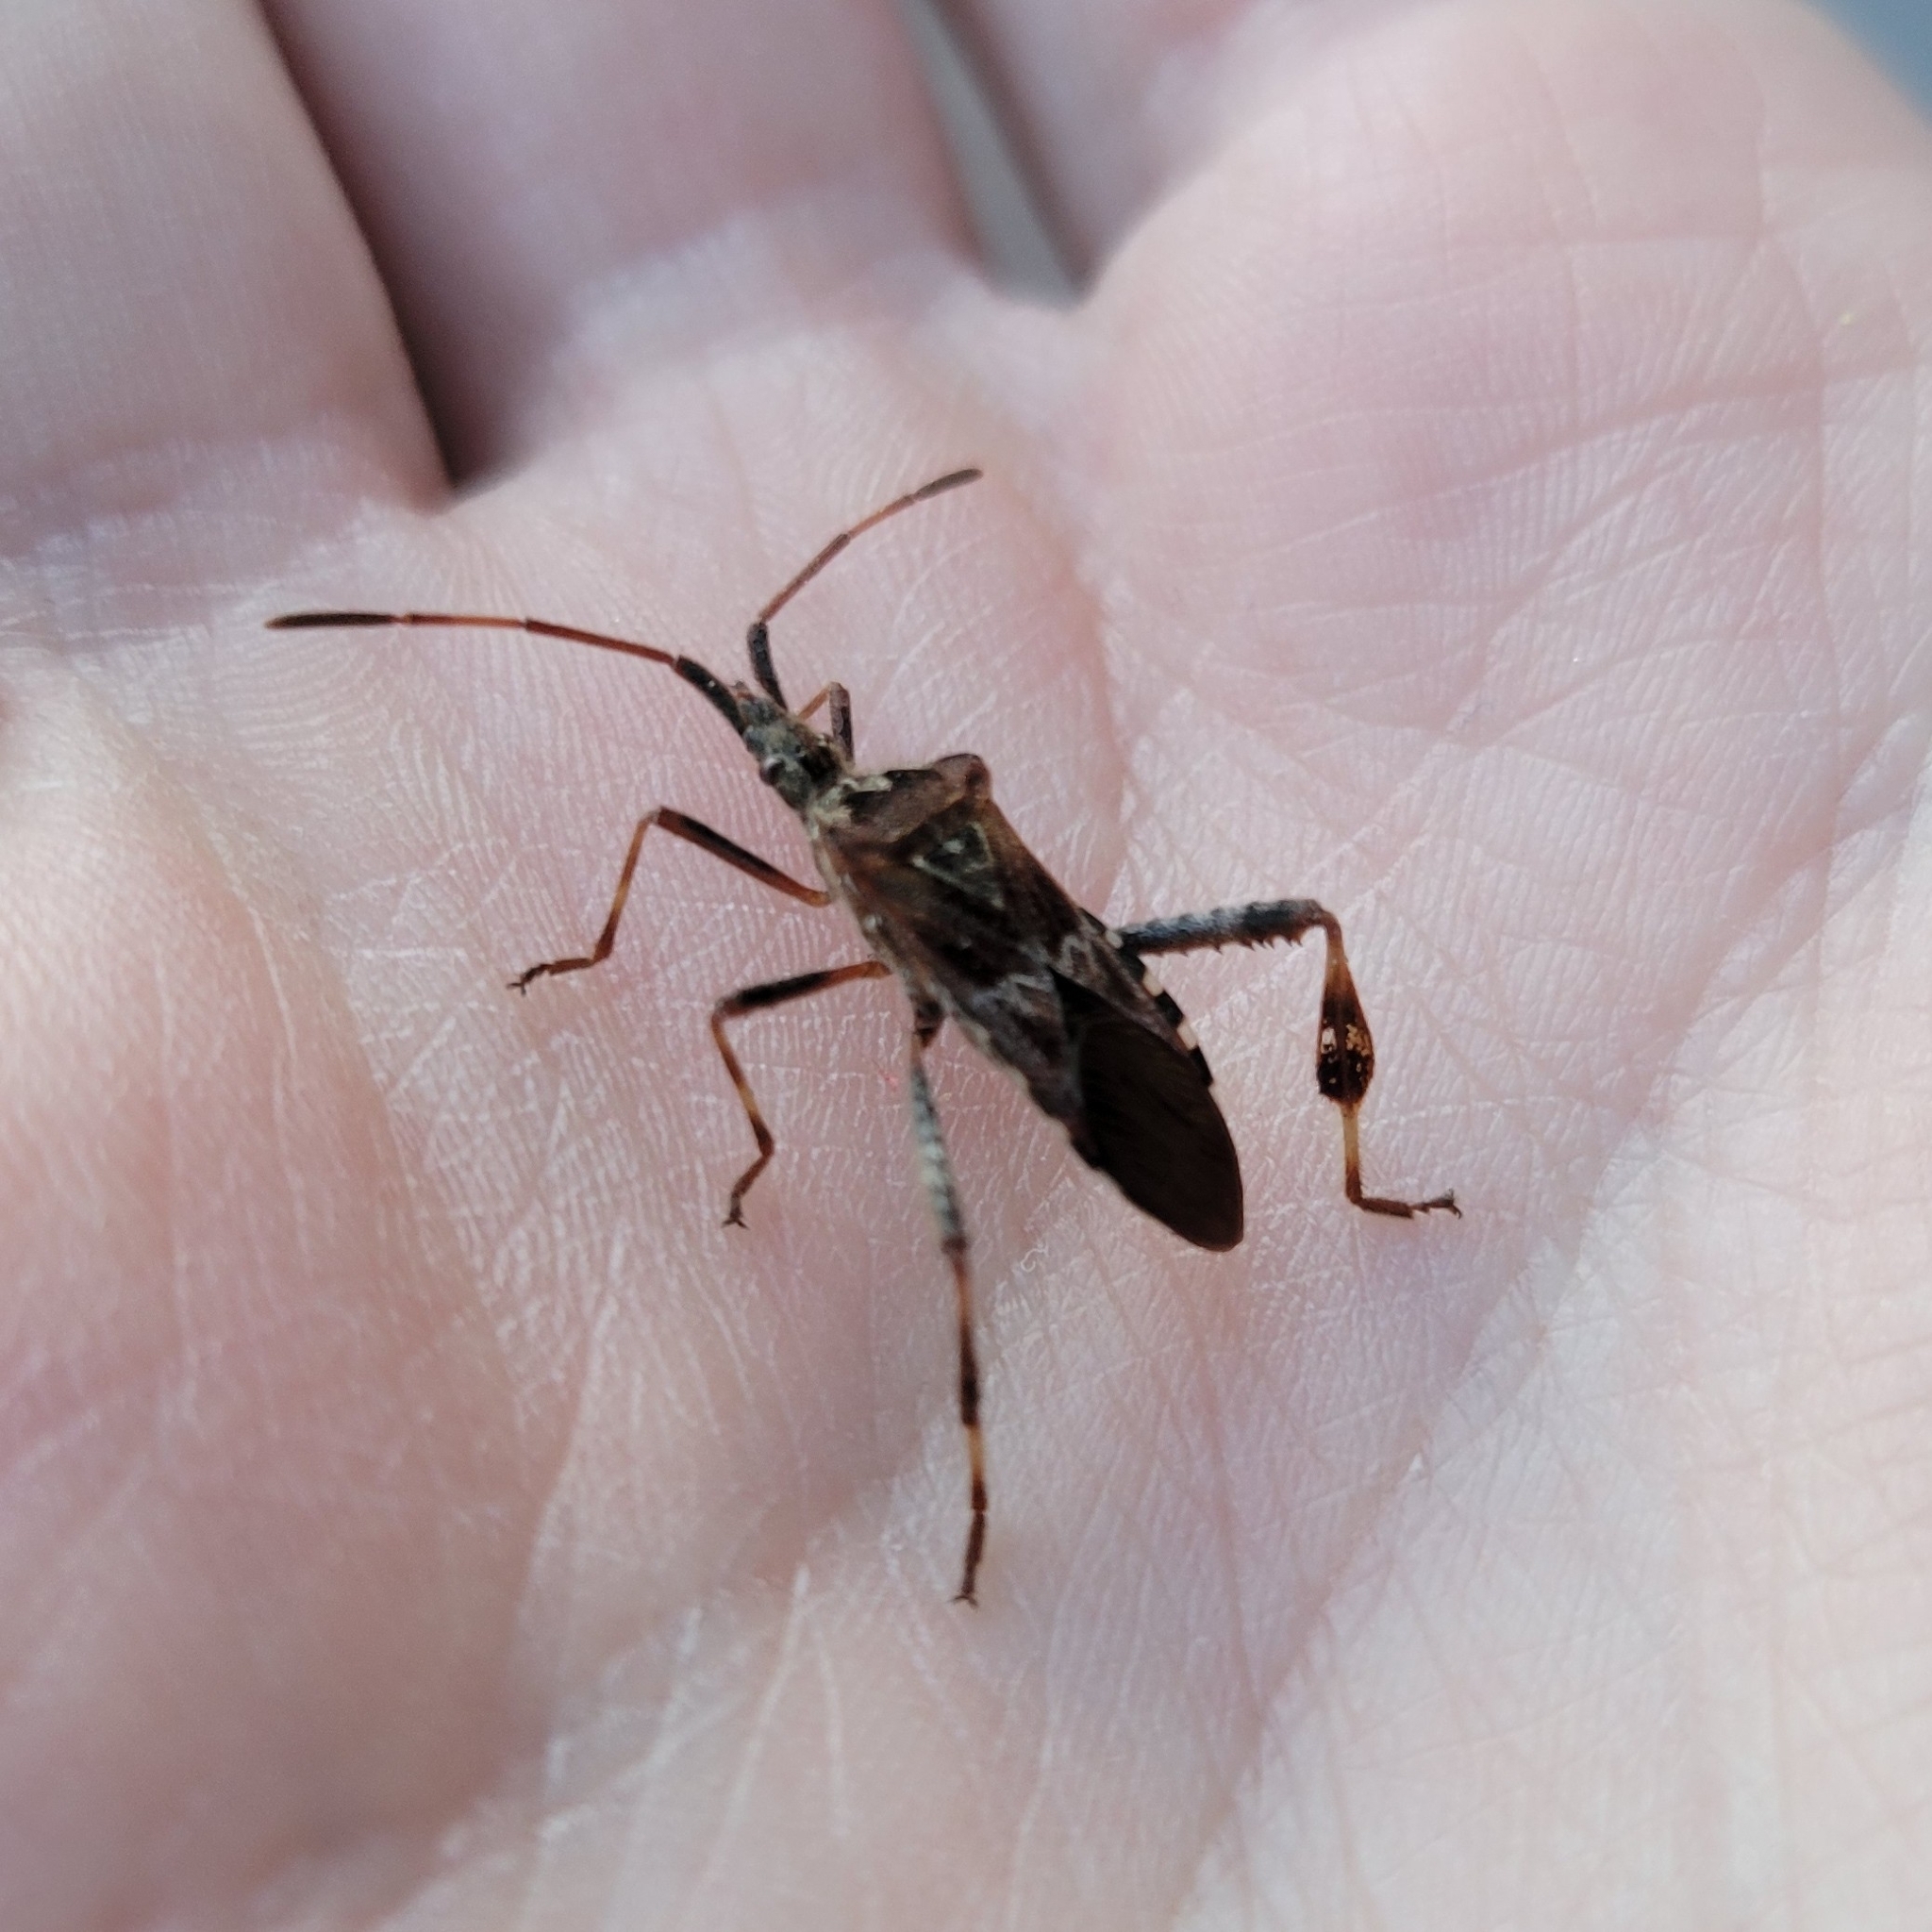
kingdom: Animalia
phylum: Arthropoda
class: Insecta
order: Hemiptera
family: Coreidae
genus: Leptoglossus
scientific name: Leptoglossus occidentalis
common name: Western conifer-seed bug
